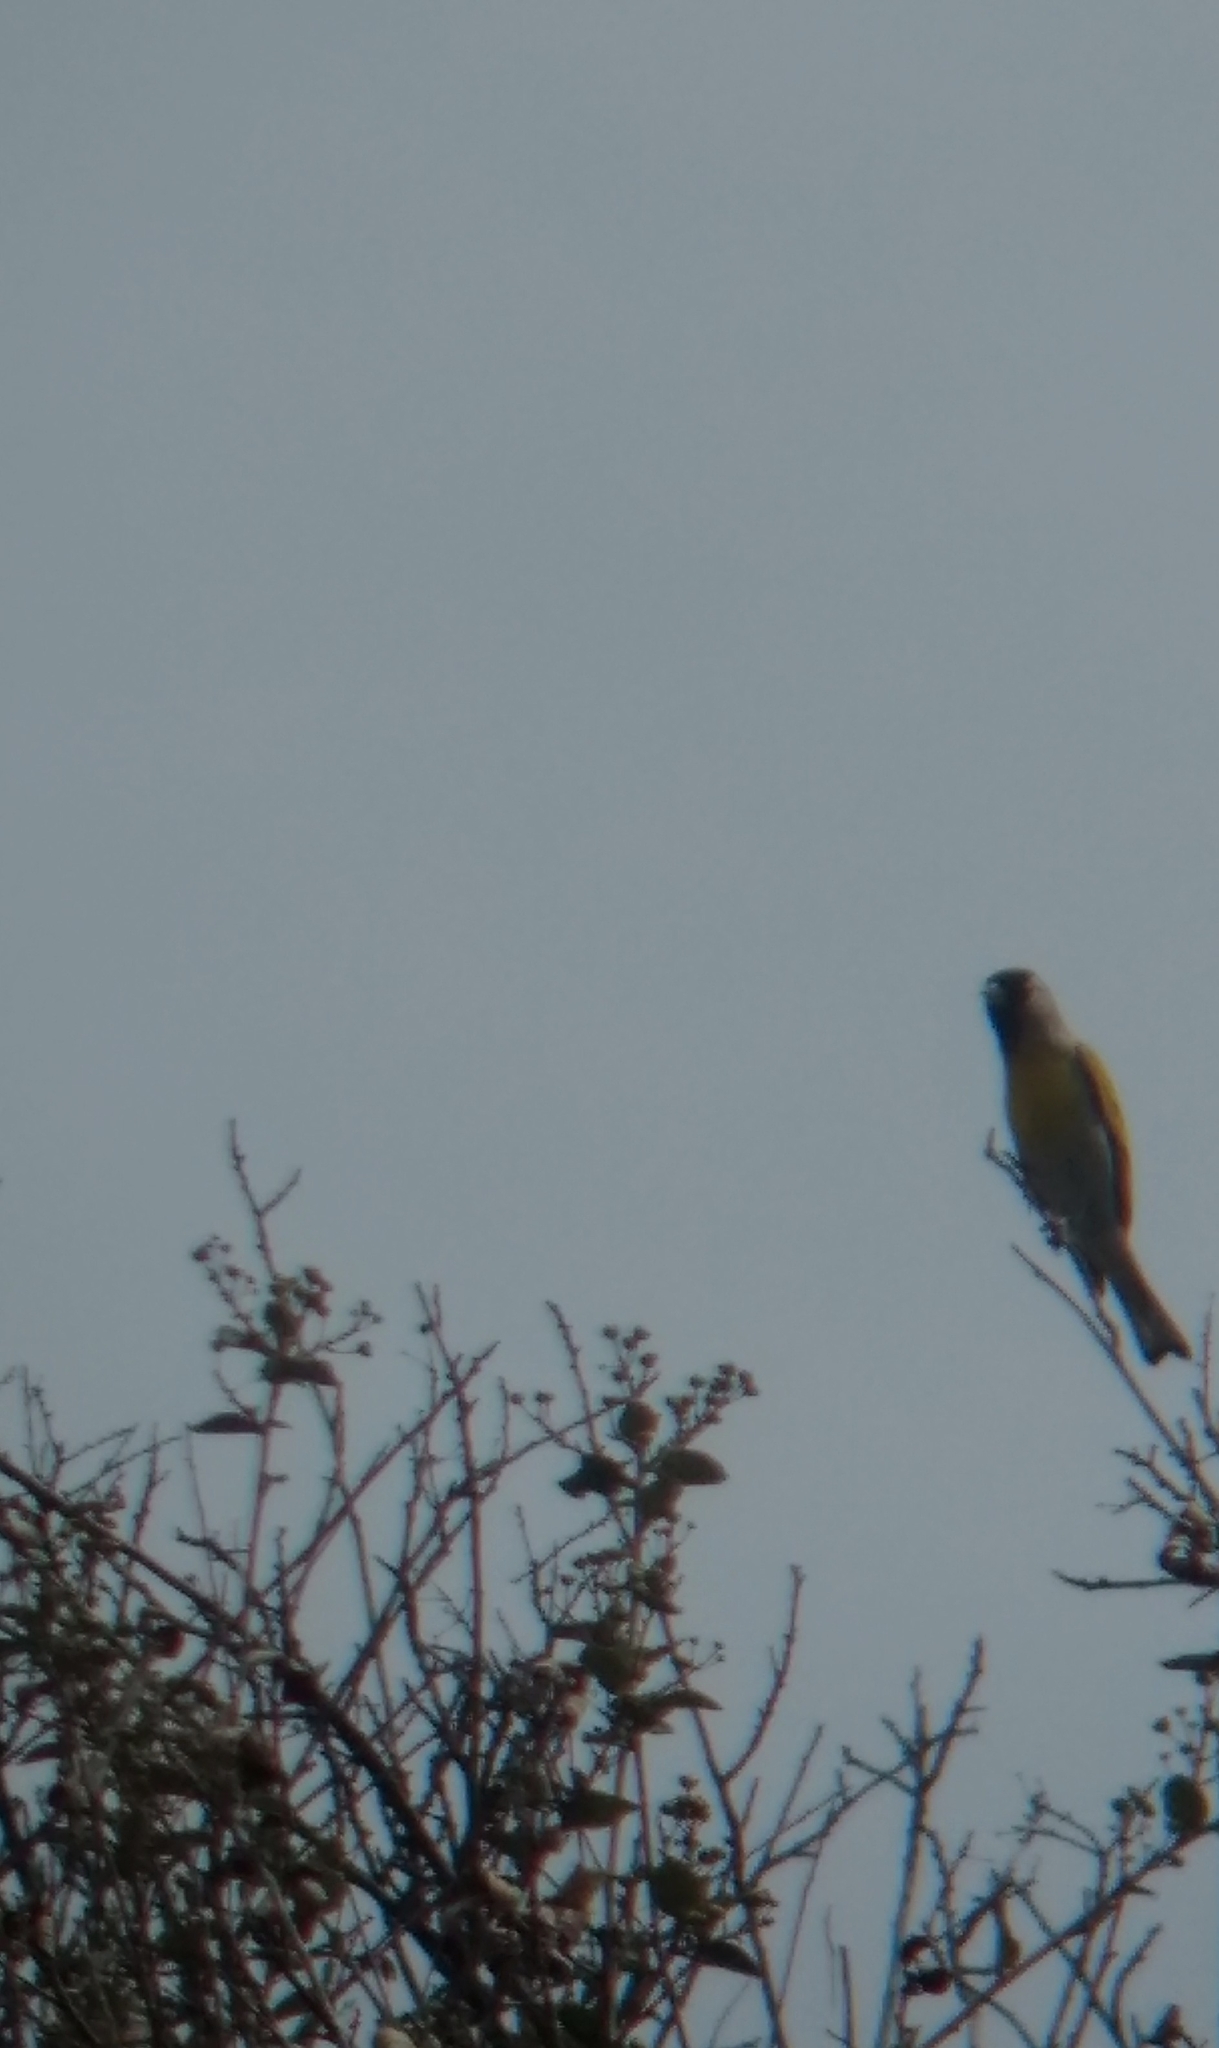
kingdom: Animalia
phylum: Chordata
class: Aves
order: Passeriformes
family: Fringillidae
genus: Spinus
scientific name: Spinus lawrencei
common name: Lawrence's goldfinch
